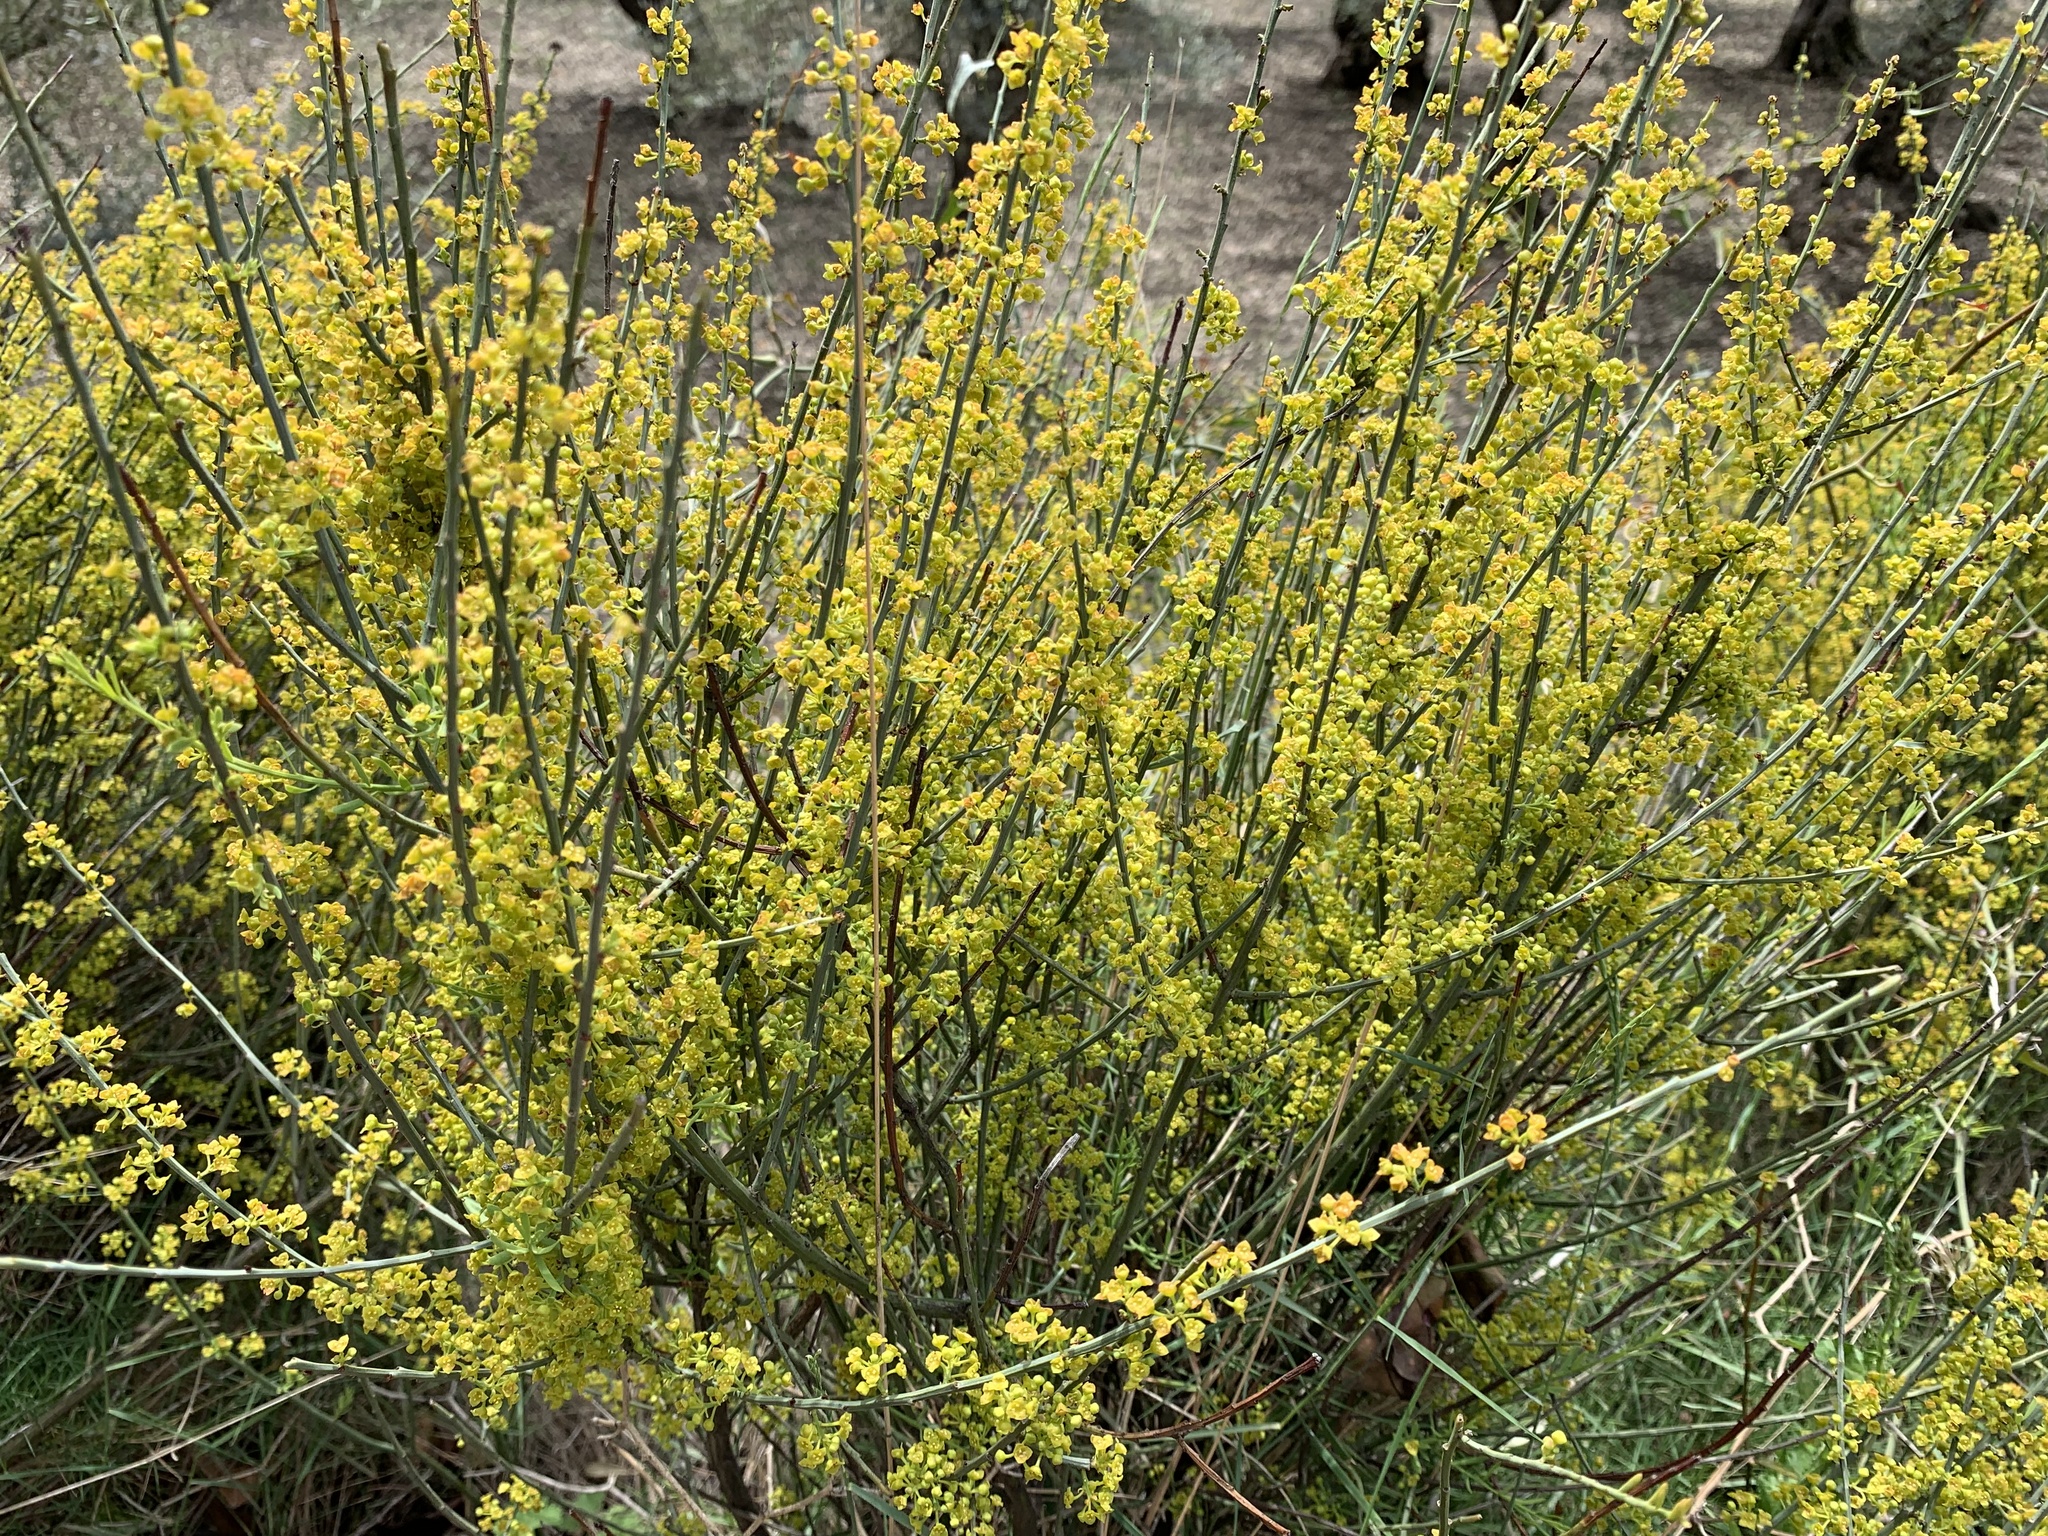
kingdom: Plantae
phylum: Tracheophyta
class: Magnoliopsida
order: Santalales
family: Santalaceae
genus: Osyris
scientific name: Osyris alba
